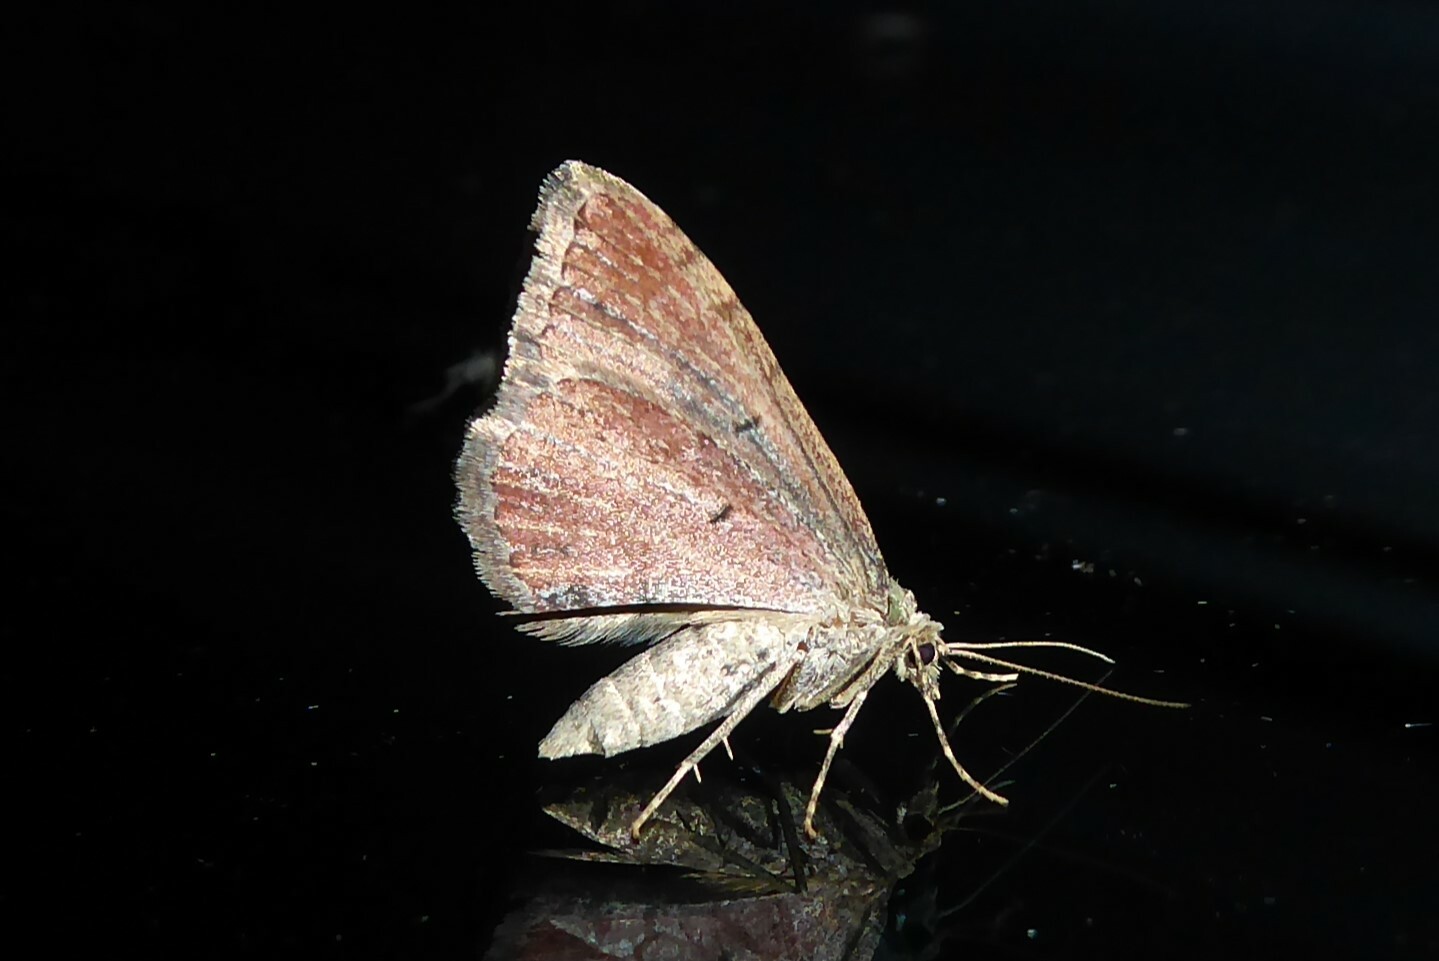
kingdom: Animalia
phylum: Arthropoda
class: Insecta
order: Lepidoptera
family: Geometridae
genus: Epyaxa
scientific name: Epyaxa rosearia
